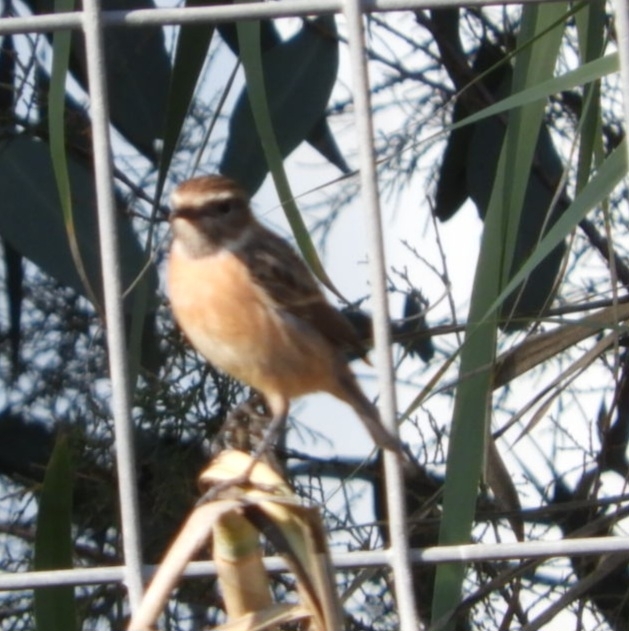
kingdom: Animalia
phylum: Chordata
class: Aves
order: Passeriformes
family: Muscicapidae
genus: Saxicola
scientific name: Saxicola rubicola
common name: European stonechat
